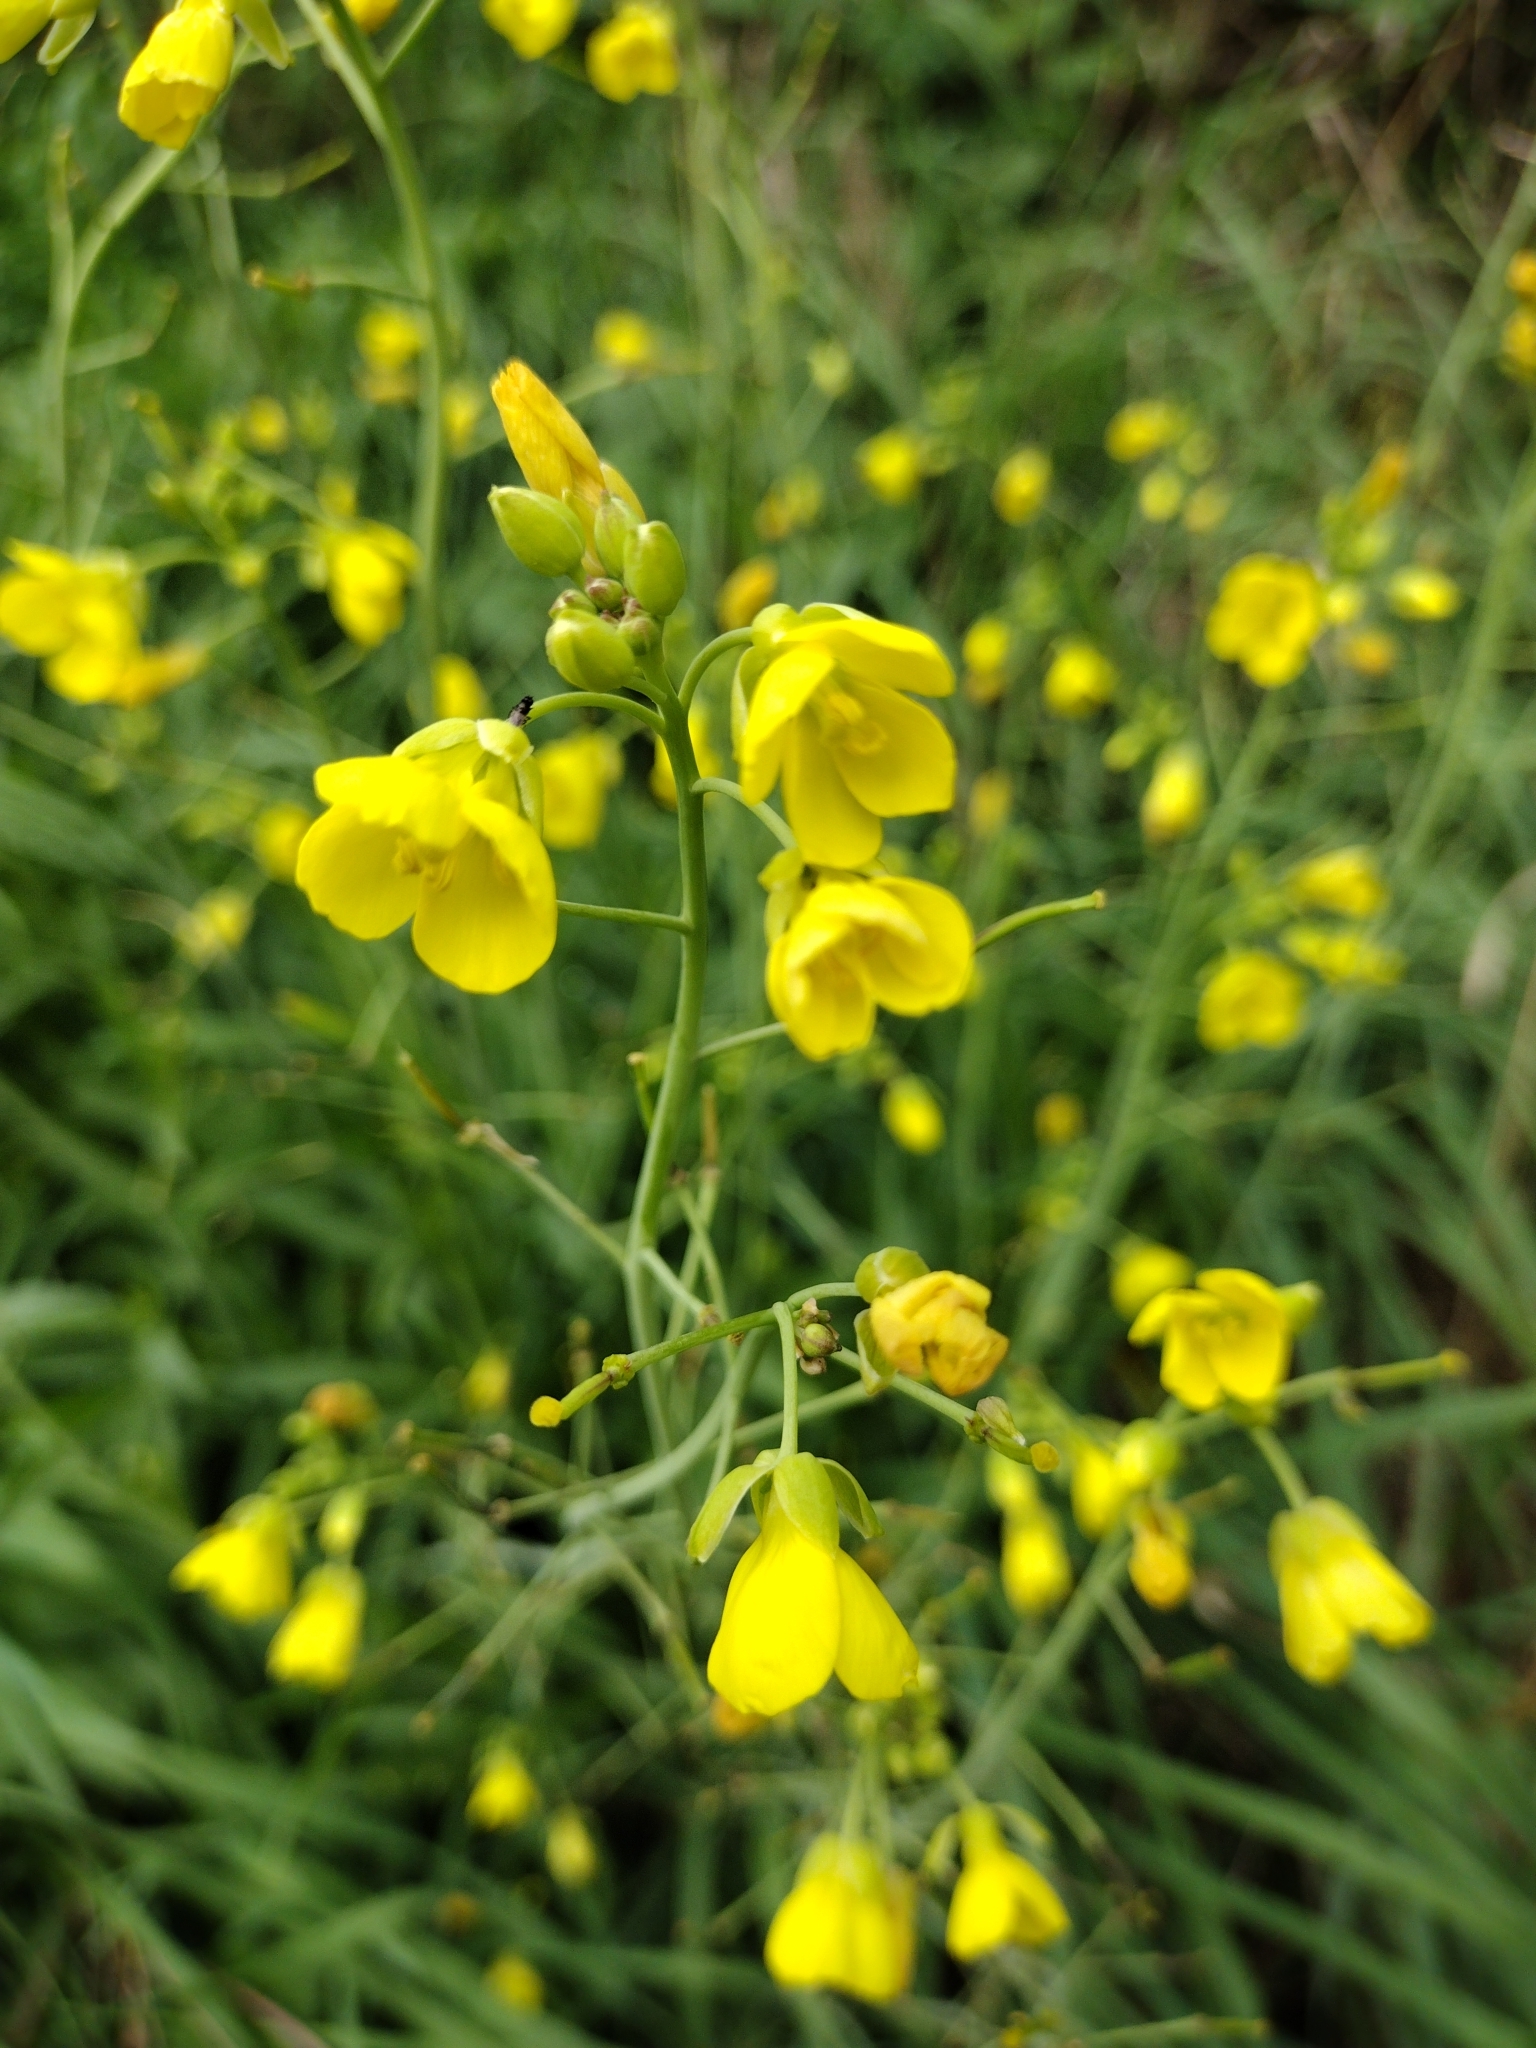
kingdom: Plantae
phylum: Tracheophyta
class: Magnoliopsida
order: Brassicales
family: Brassicaceae
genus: Diplotaxis
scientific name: Diplotaxis tenuifolia
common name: Perennial wall-rocket
